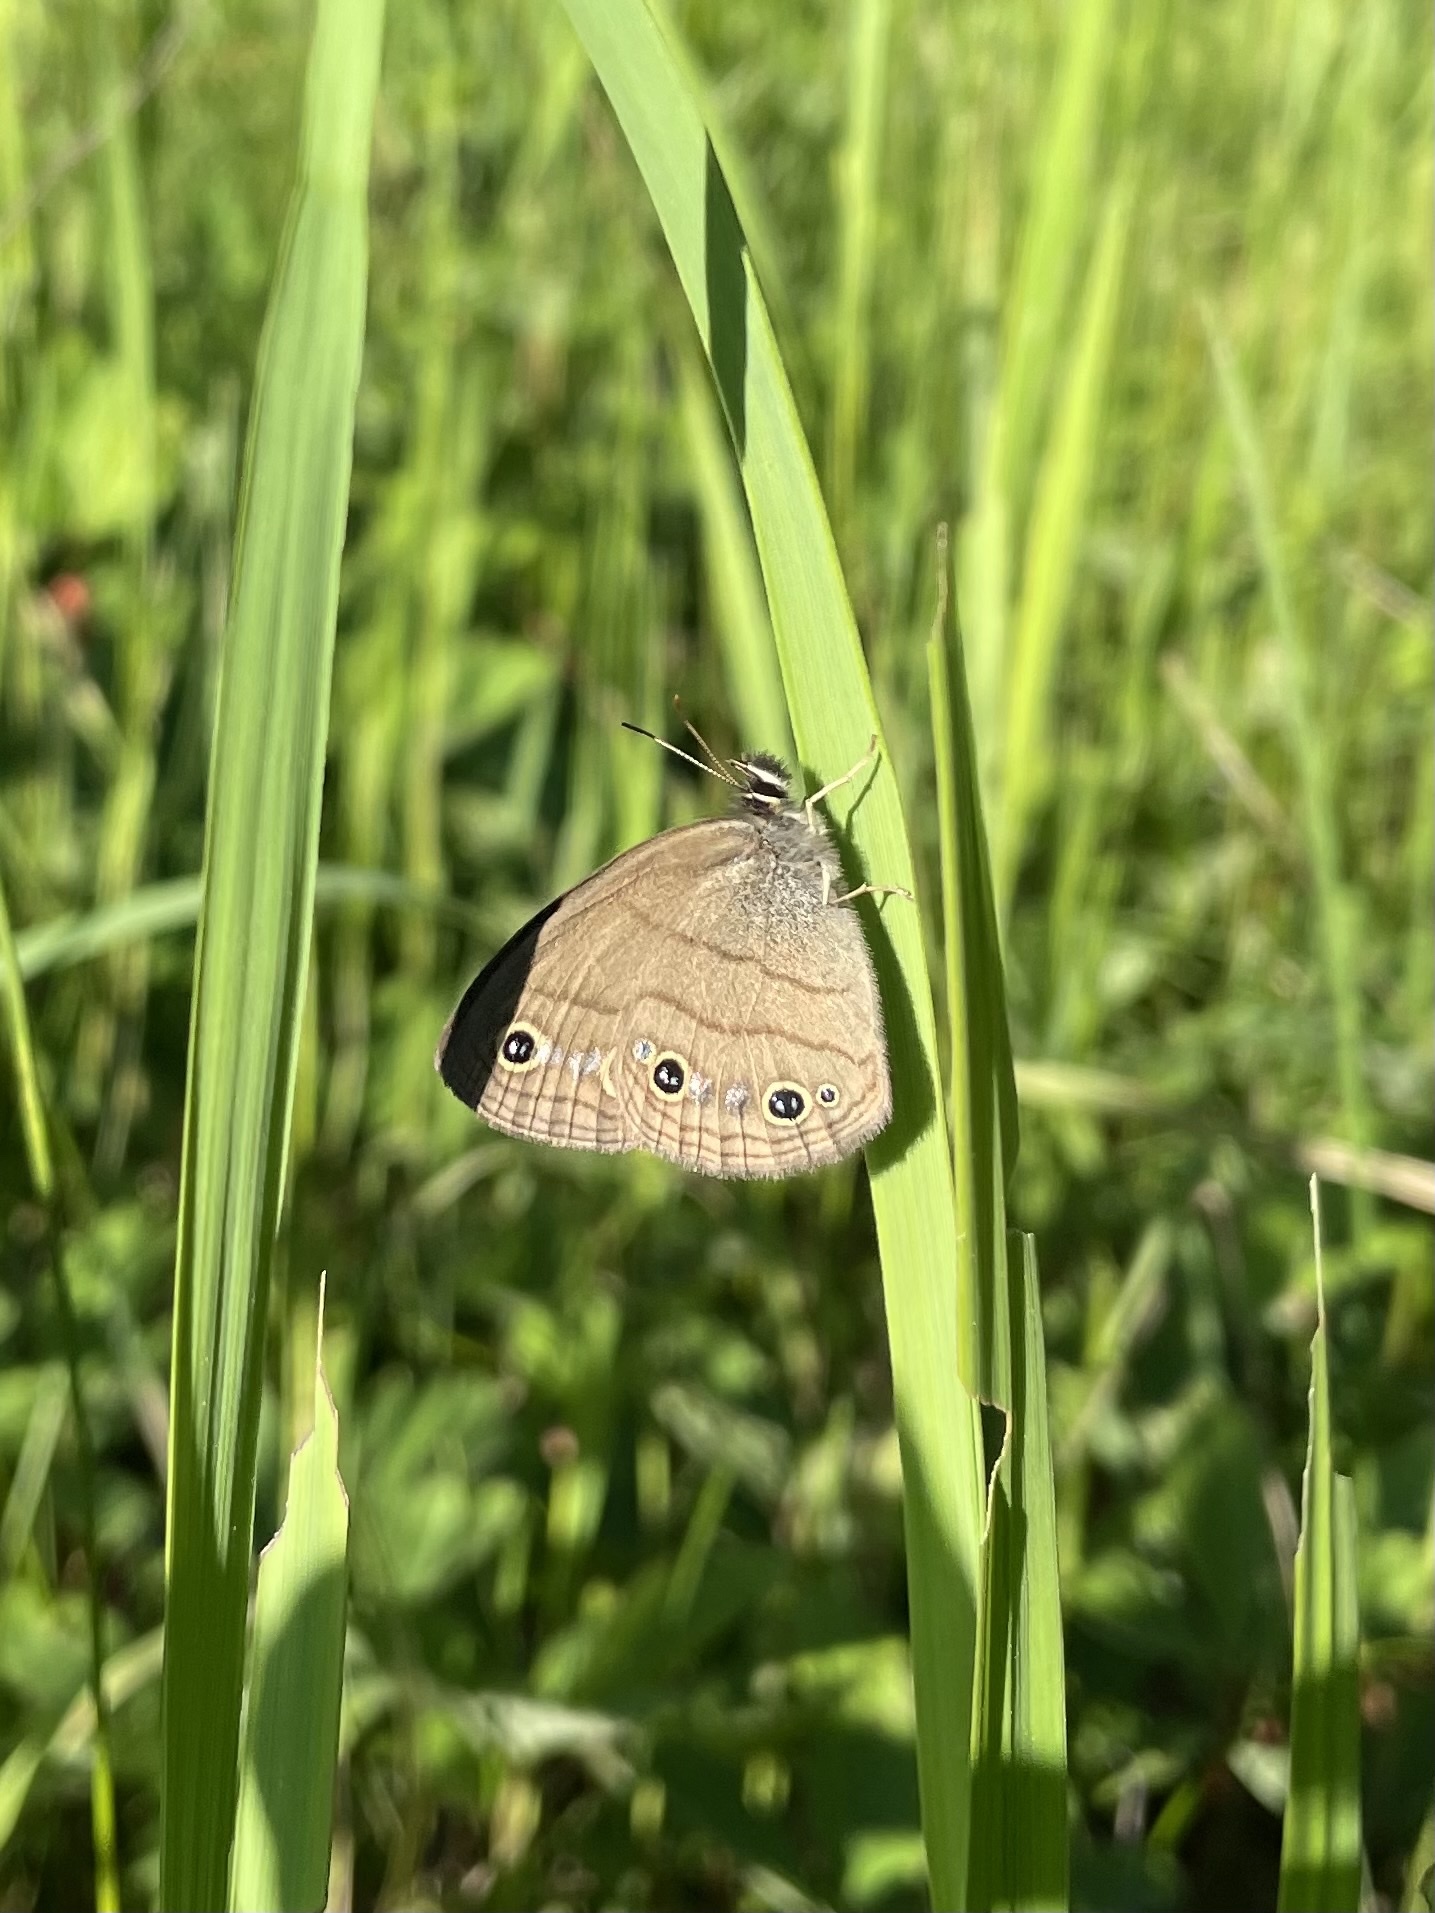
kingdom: Animalia
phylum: Arthropoda
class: Insecta
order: Lepidoptera
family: Nymphalidae
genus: Euptychia
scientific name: Euptychia cymela
